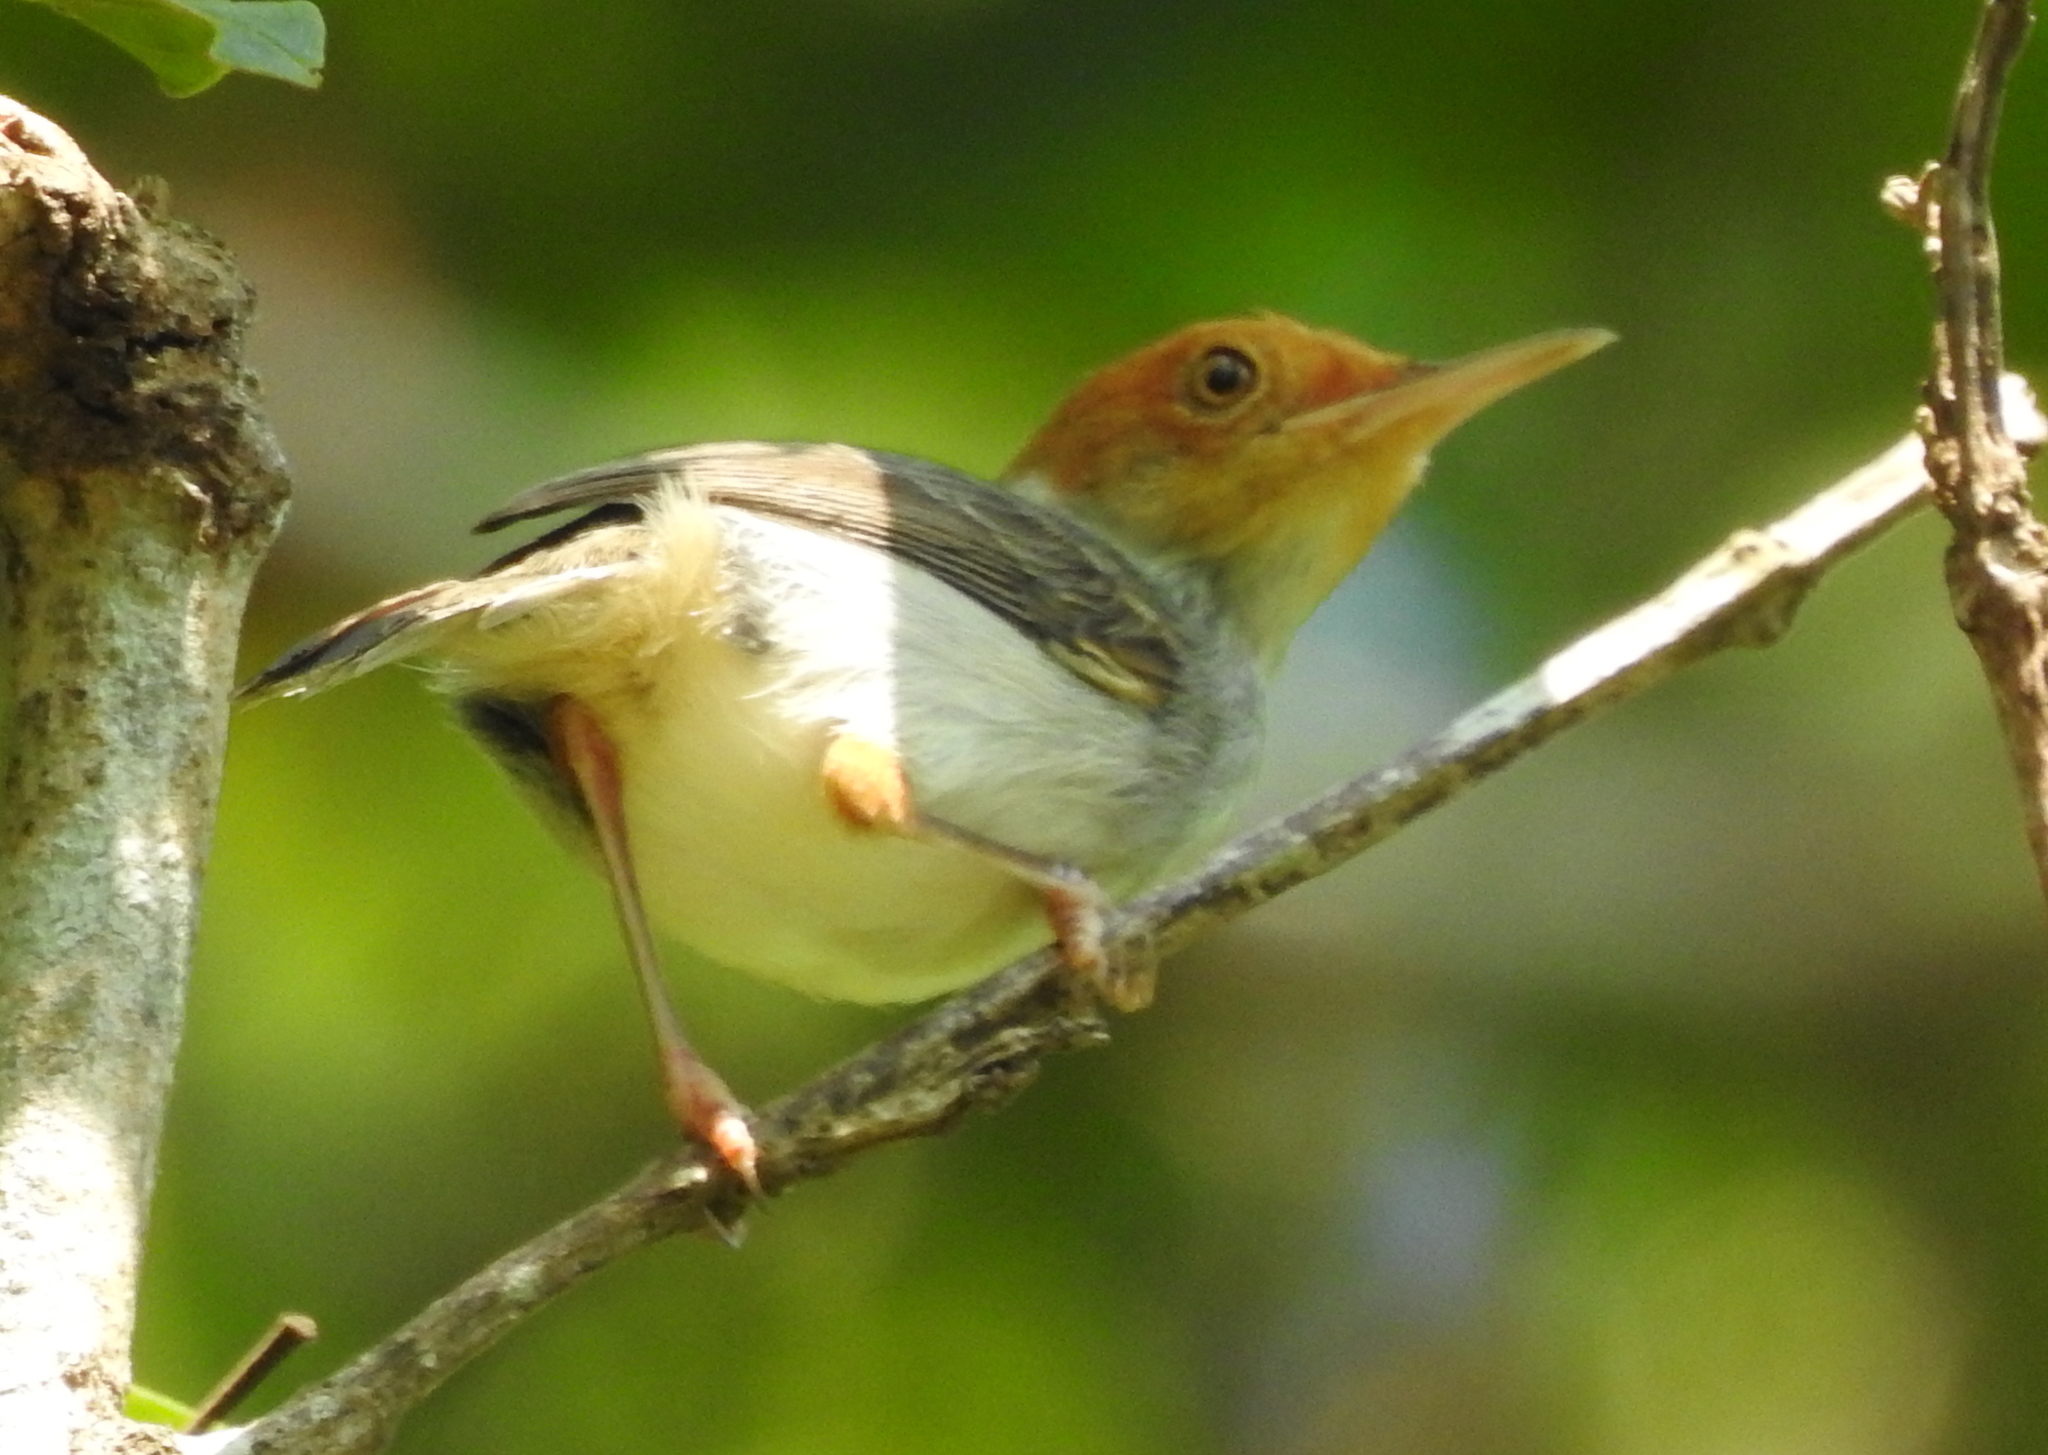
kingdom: Animalia
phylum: Chordata
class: Aves
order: Passeriformes
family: Cisticolidae
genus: Orthotomus
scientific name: Orthotomus ruficeps
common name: Ashy tailorbird
